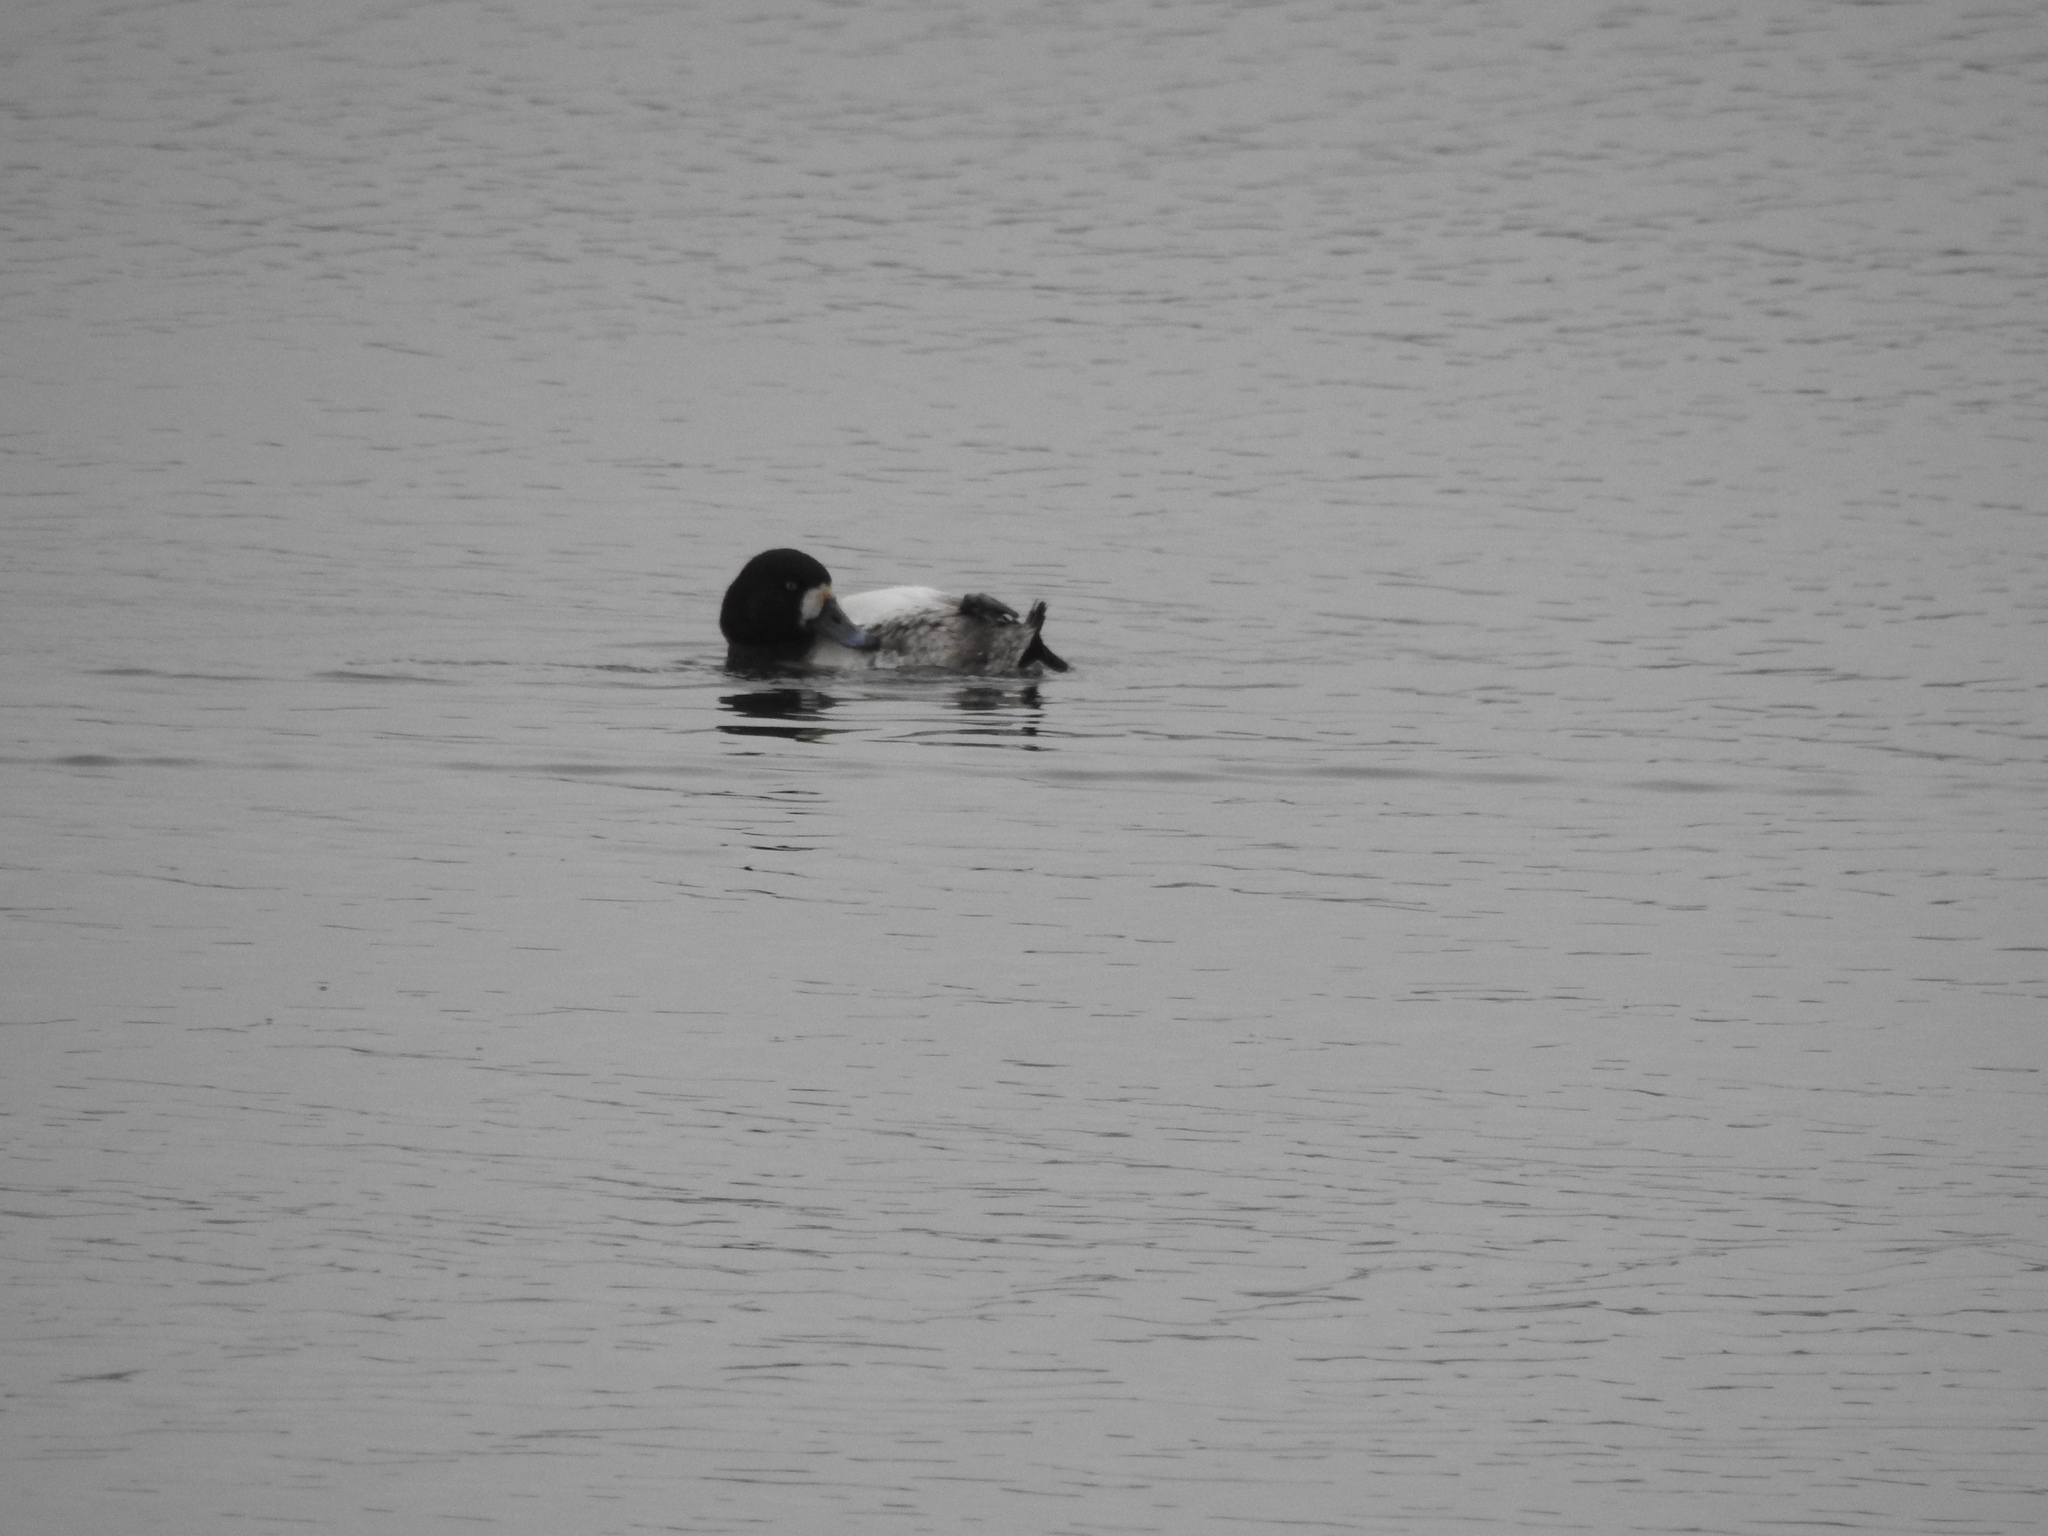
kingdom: Animalia
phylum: Chordata
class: Aves
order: Anseriformes
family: Anatidae
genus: Aythya
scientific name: Aythya marila
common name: Greater scaup
